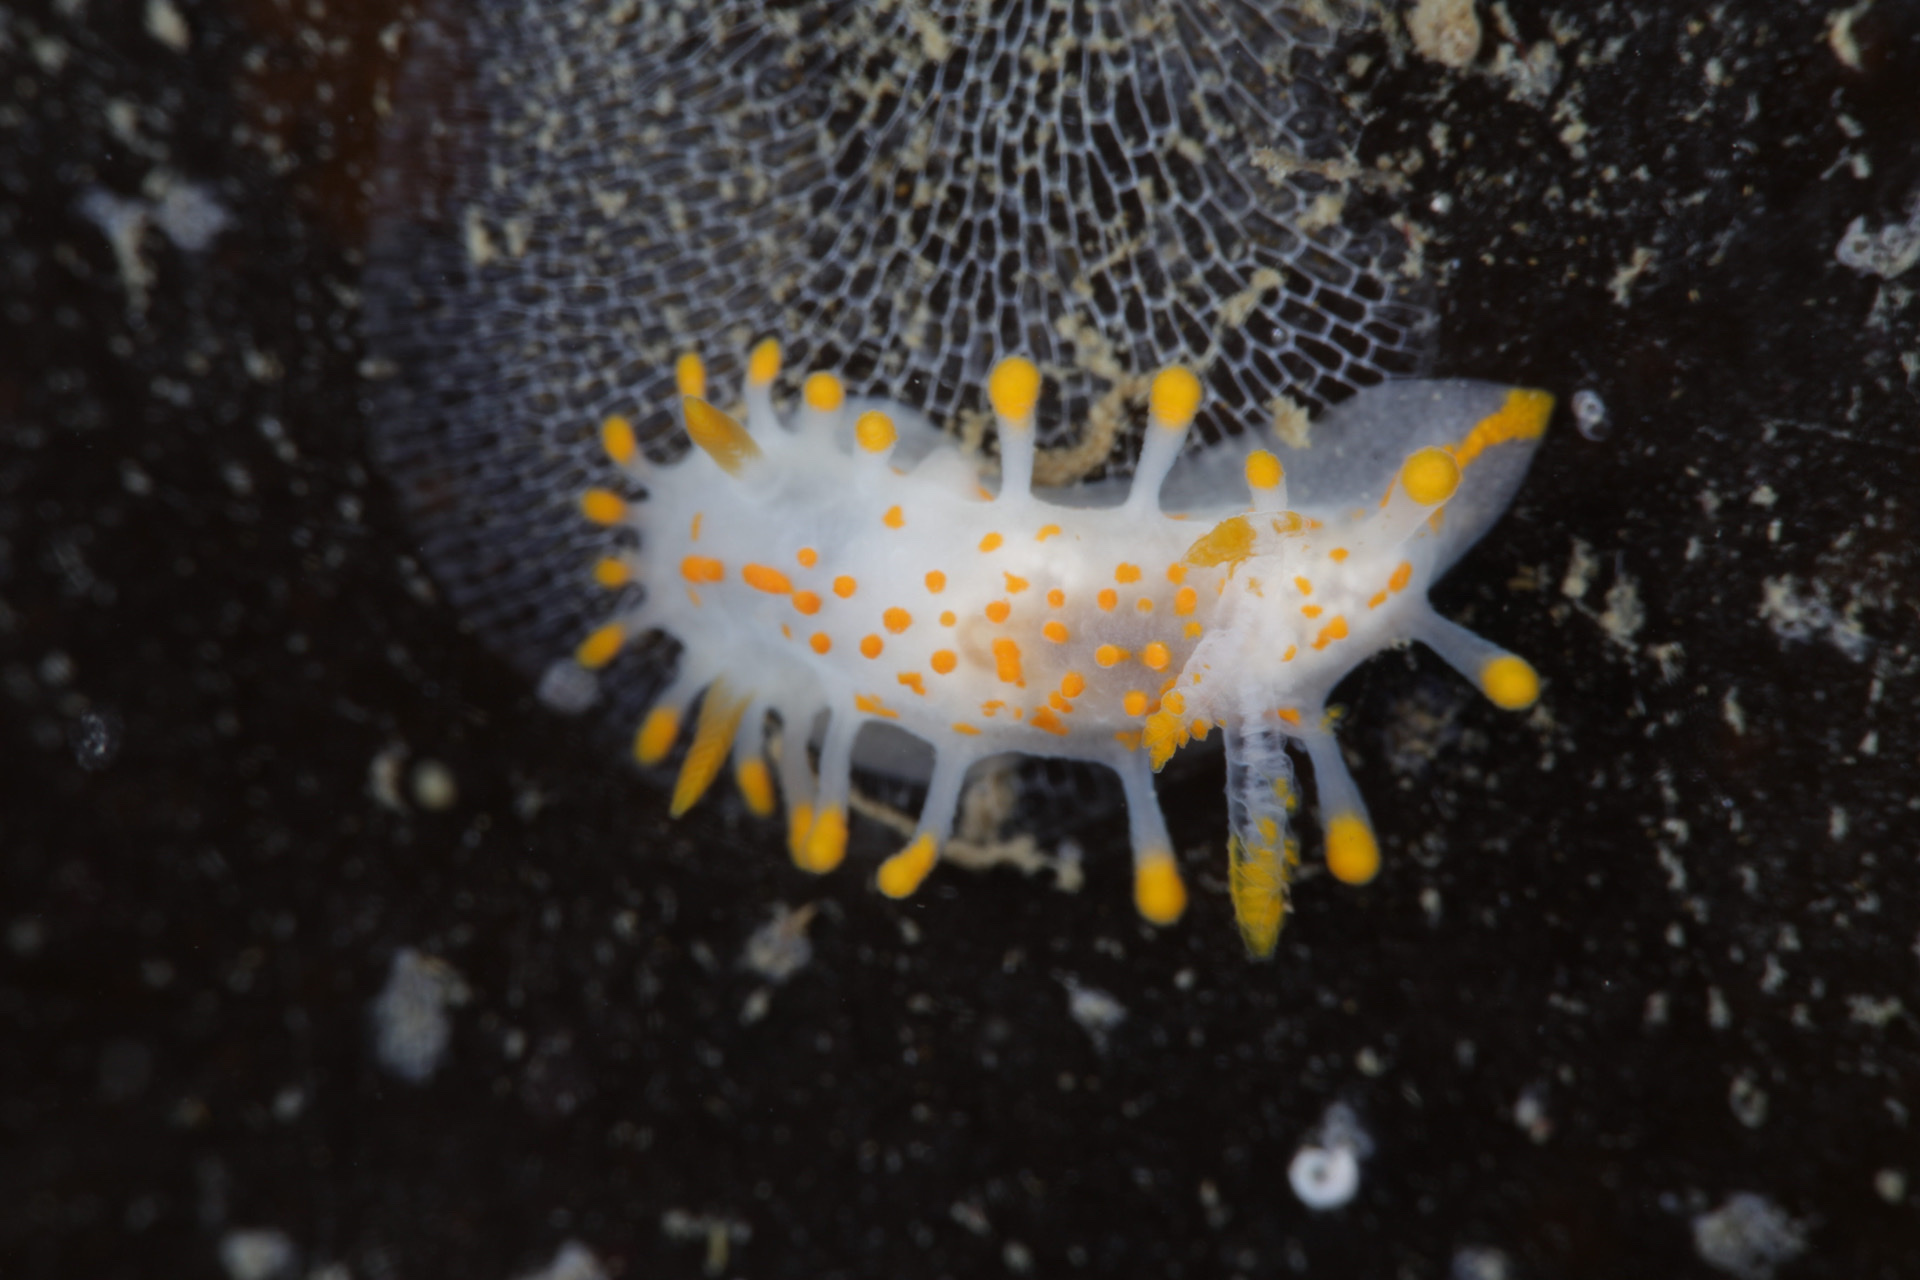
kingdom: Animalia
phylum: Mollusca
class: Gastropoda
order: Nudibranchia
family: Polyceridae
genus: Limacia
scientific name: Limacia clavigera
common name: Orange-clubbed sea slug
